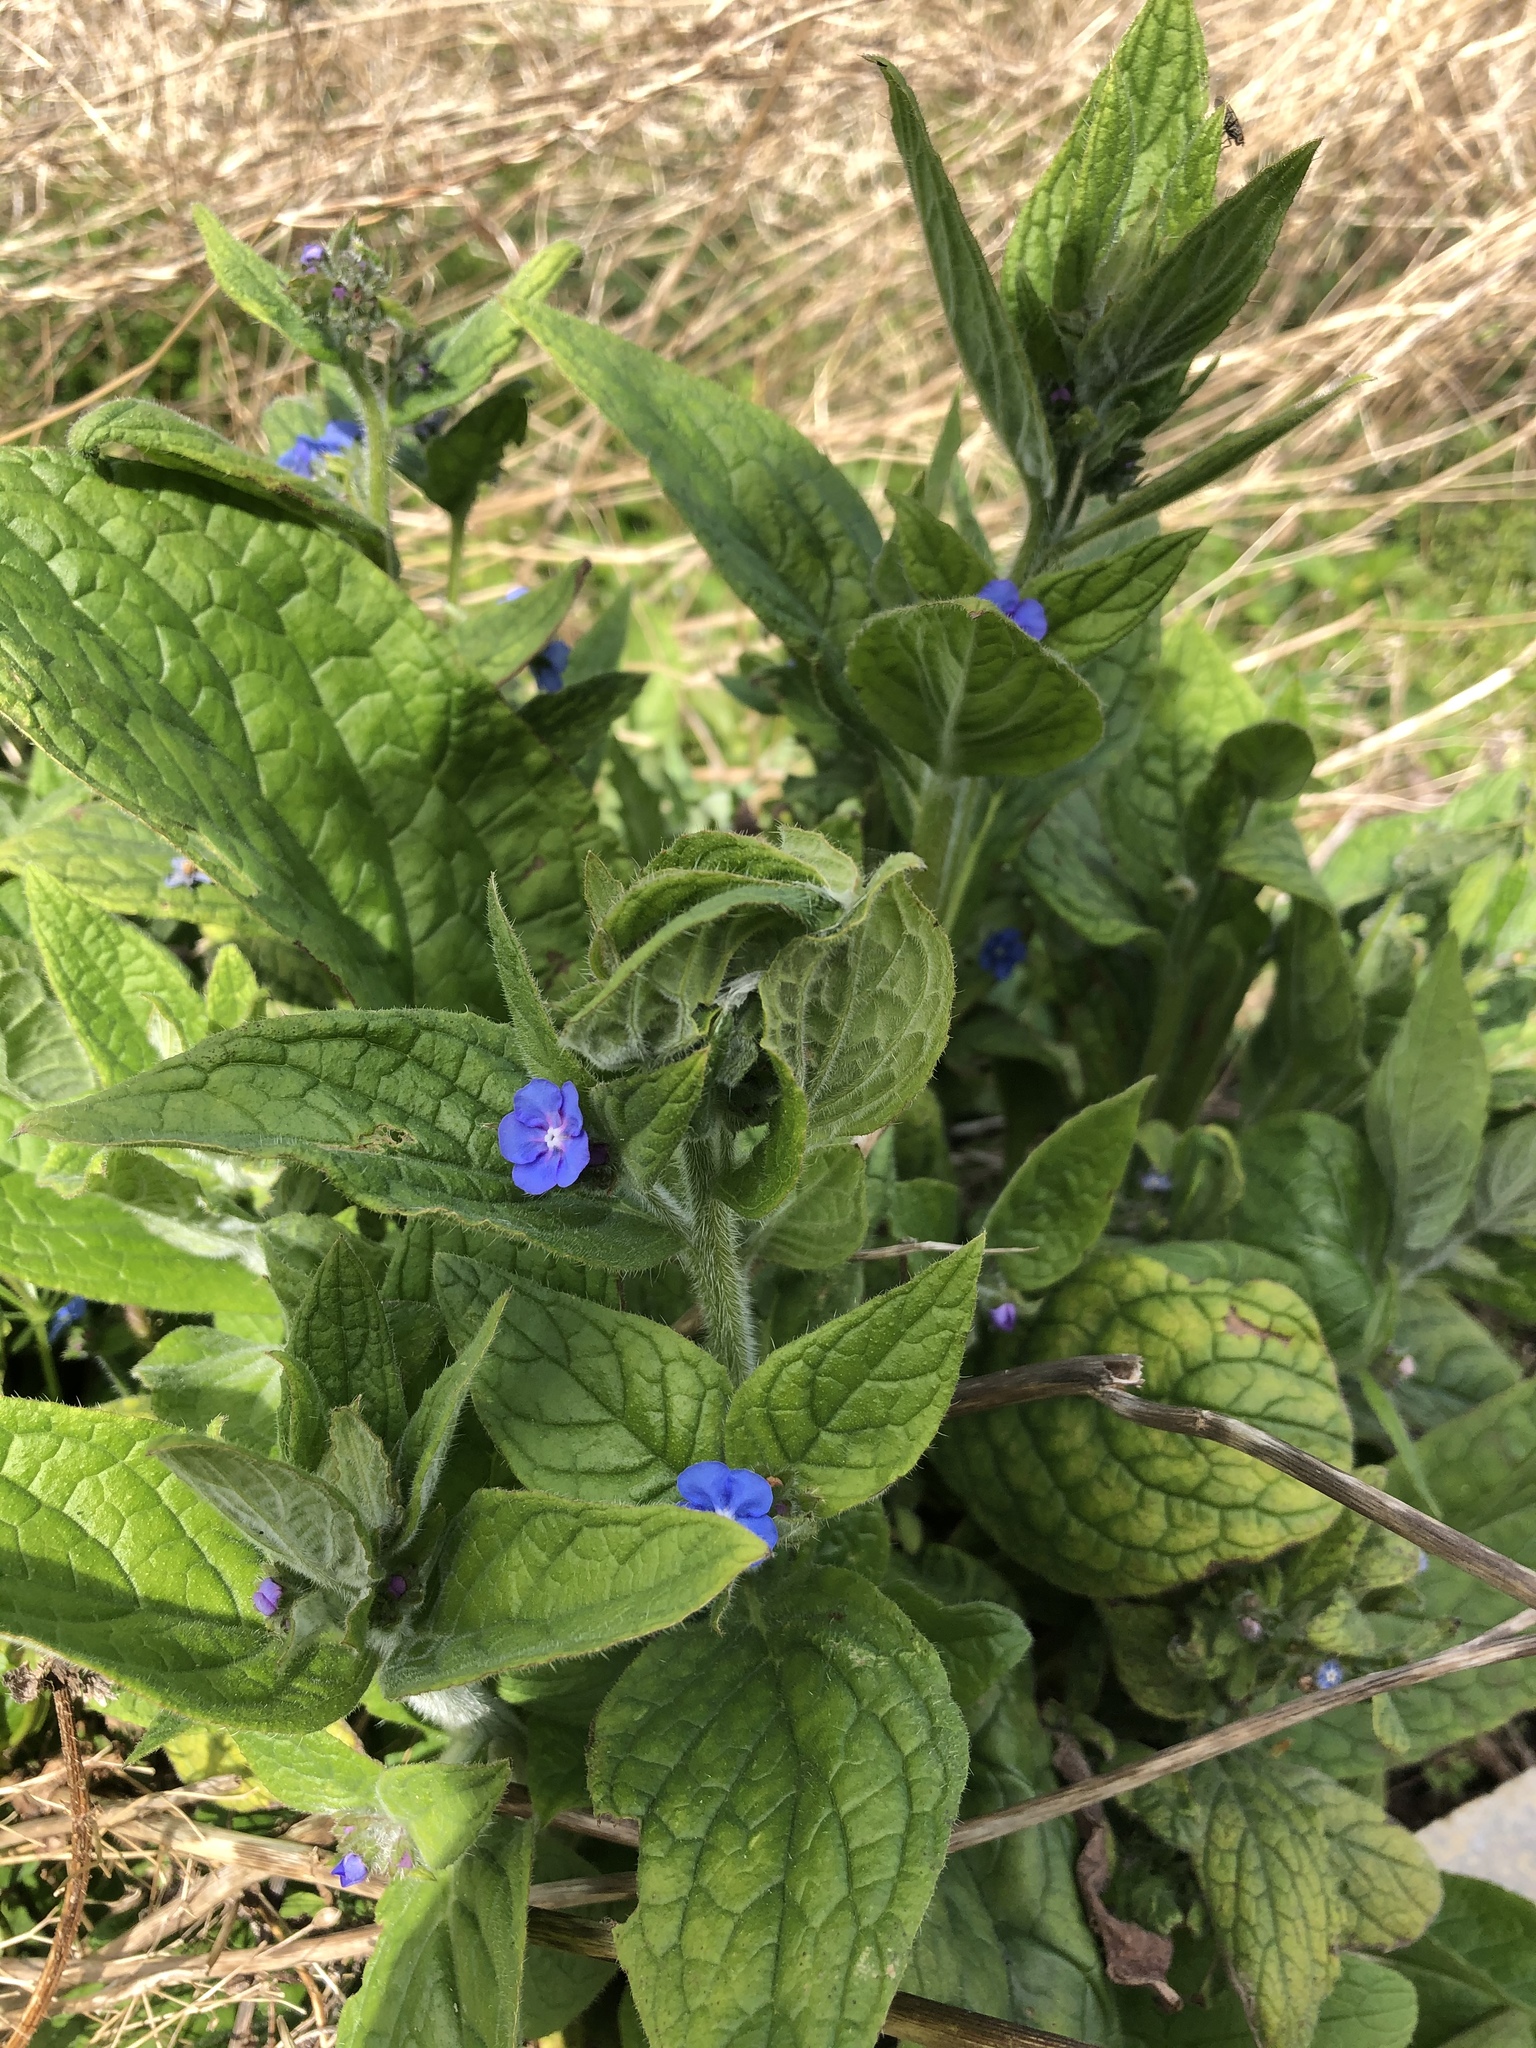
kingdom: Plantae
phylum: Tracheophyta
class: Magnoliopsida
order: Boraginales
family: Boraginaceae
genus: Pentaglottis
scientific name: Pentaglottis sempervirens
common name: Green alkanet
